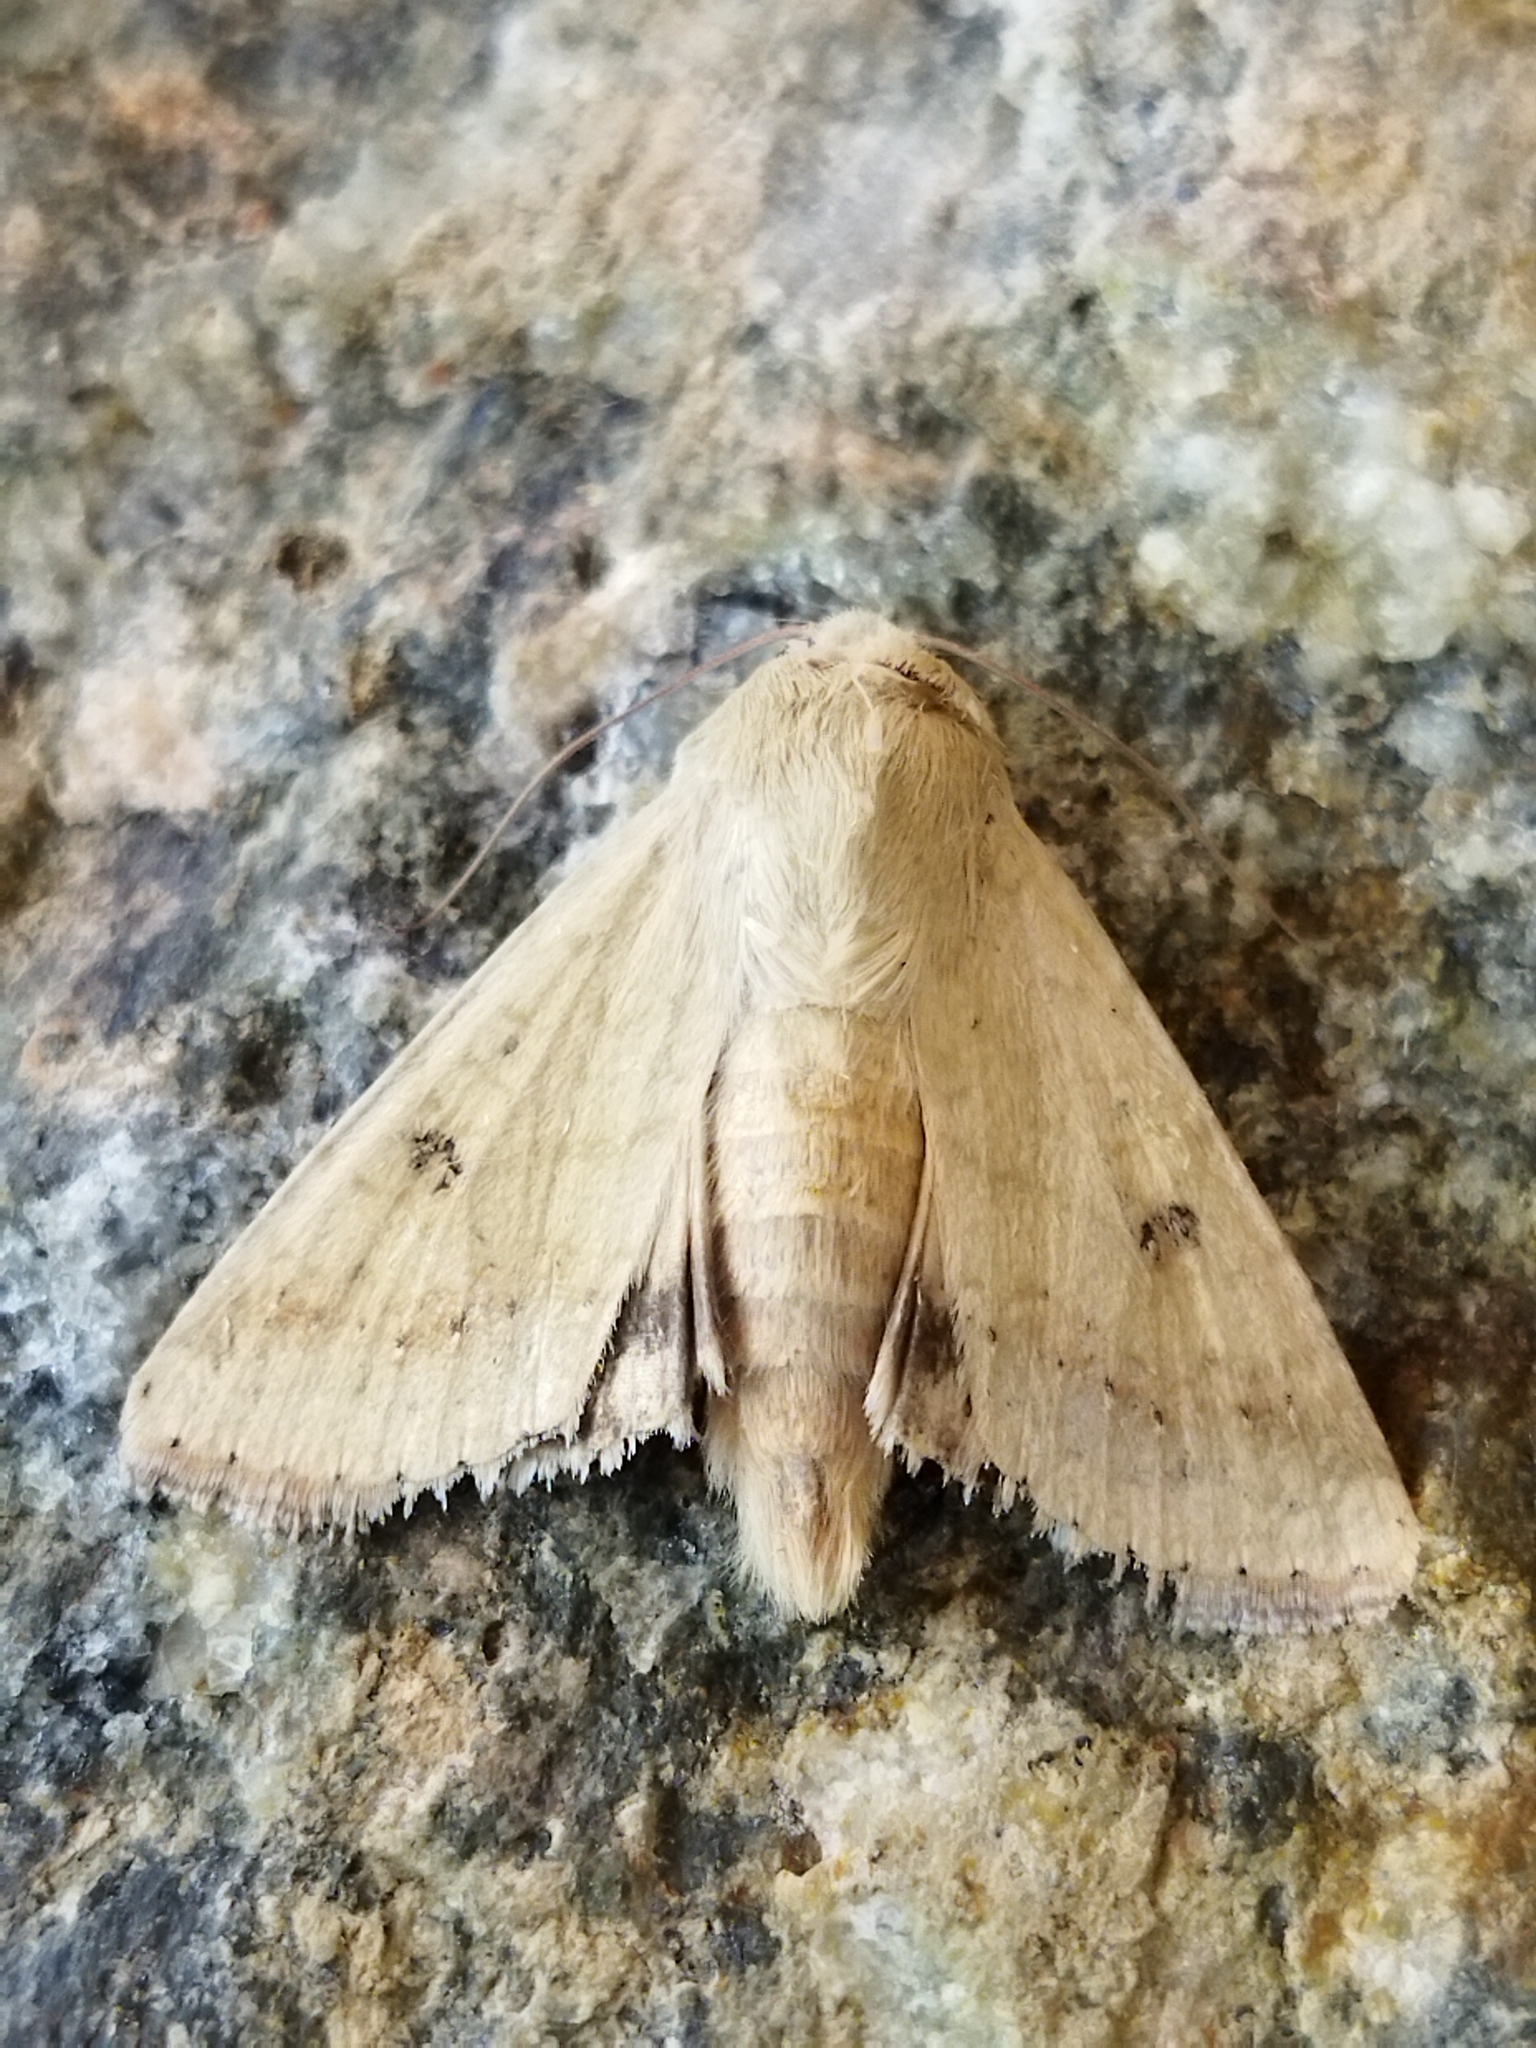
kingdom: Animalia
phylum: Arthropoda
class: Insecta
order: Lepidoptera
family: Noctuidae
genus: Helicoverpa
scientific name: Helicoverpa armigera
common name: Cotton bollworm
